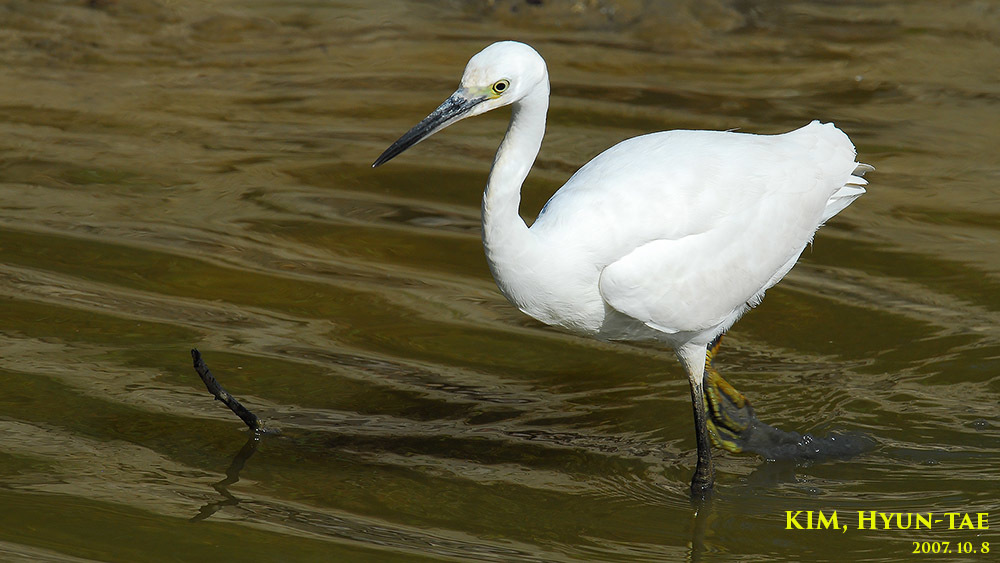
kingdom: Animalia
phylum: Chordata
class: Aves
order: Pelecaniformes
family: Ardeidae
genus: Egretta
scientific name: Egretta garzetta
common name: Little egret
